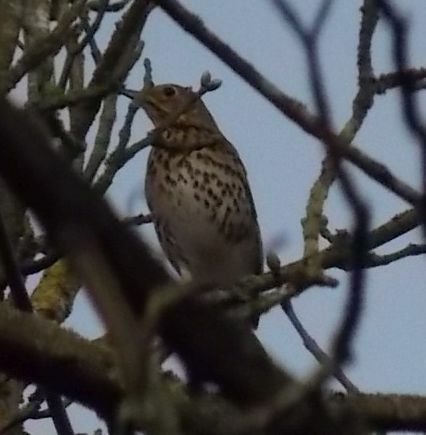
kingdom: Animalia
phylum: Chordata
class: Aves
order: Passeriformes
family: Turdidae
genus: Turdus
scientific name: Turdus philomelos
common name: Song thrush
